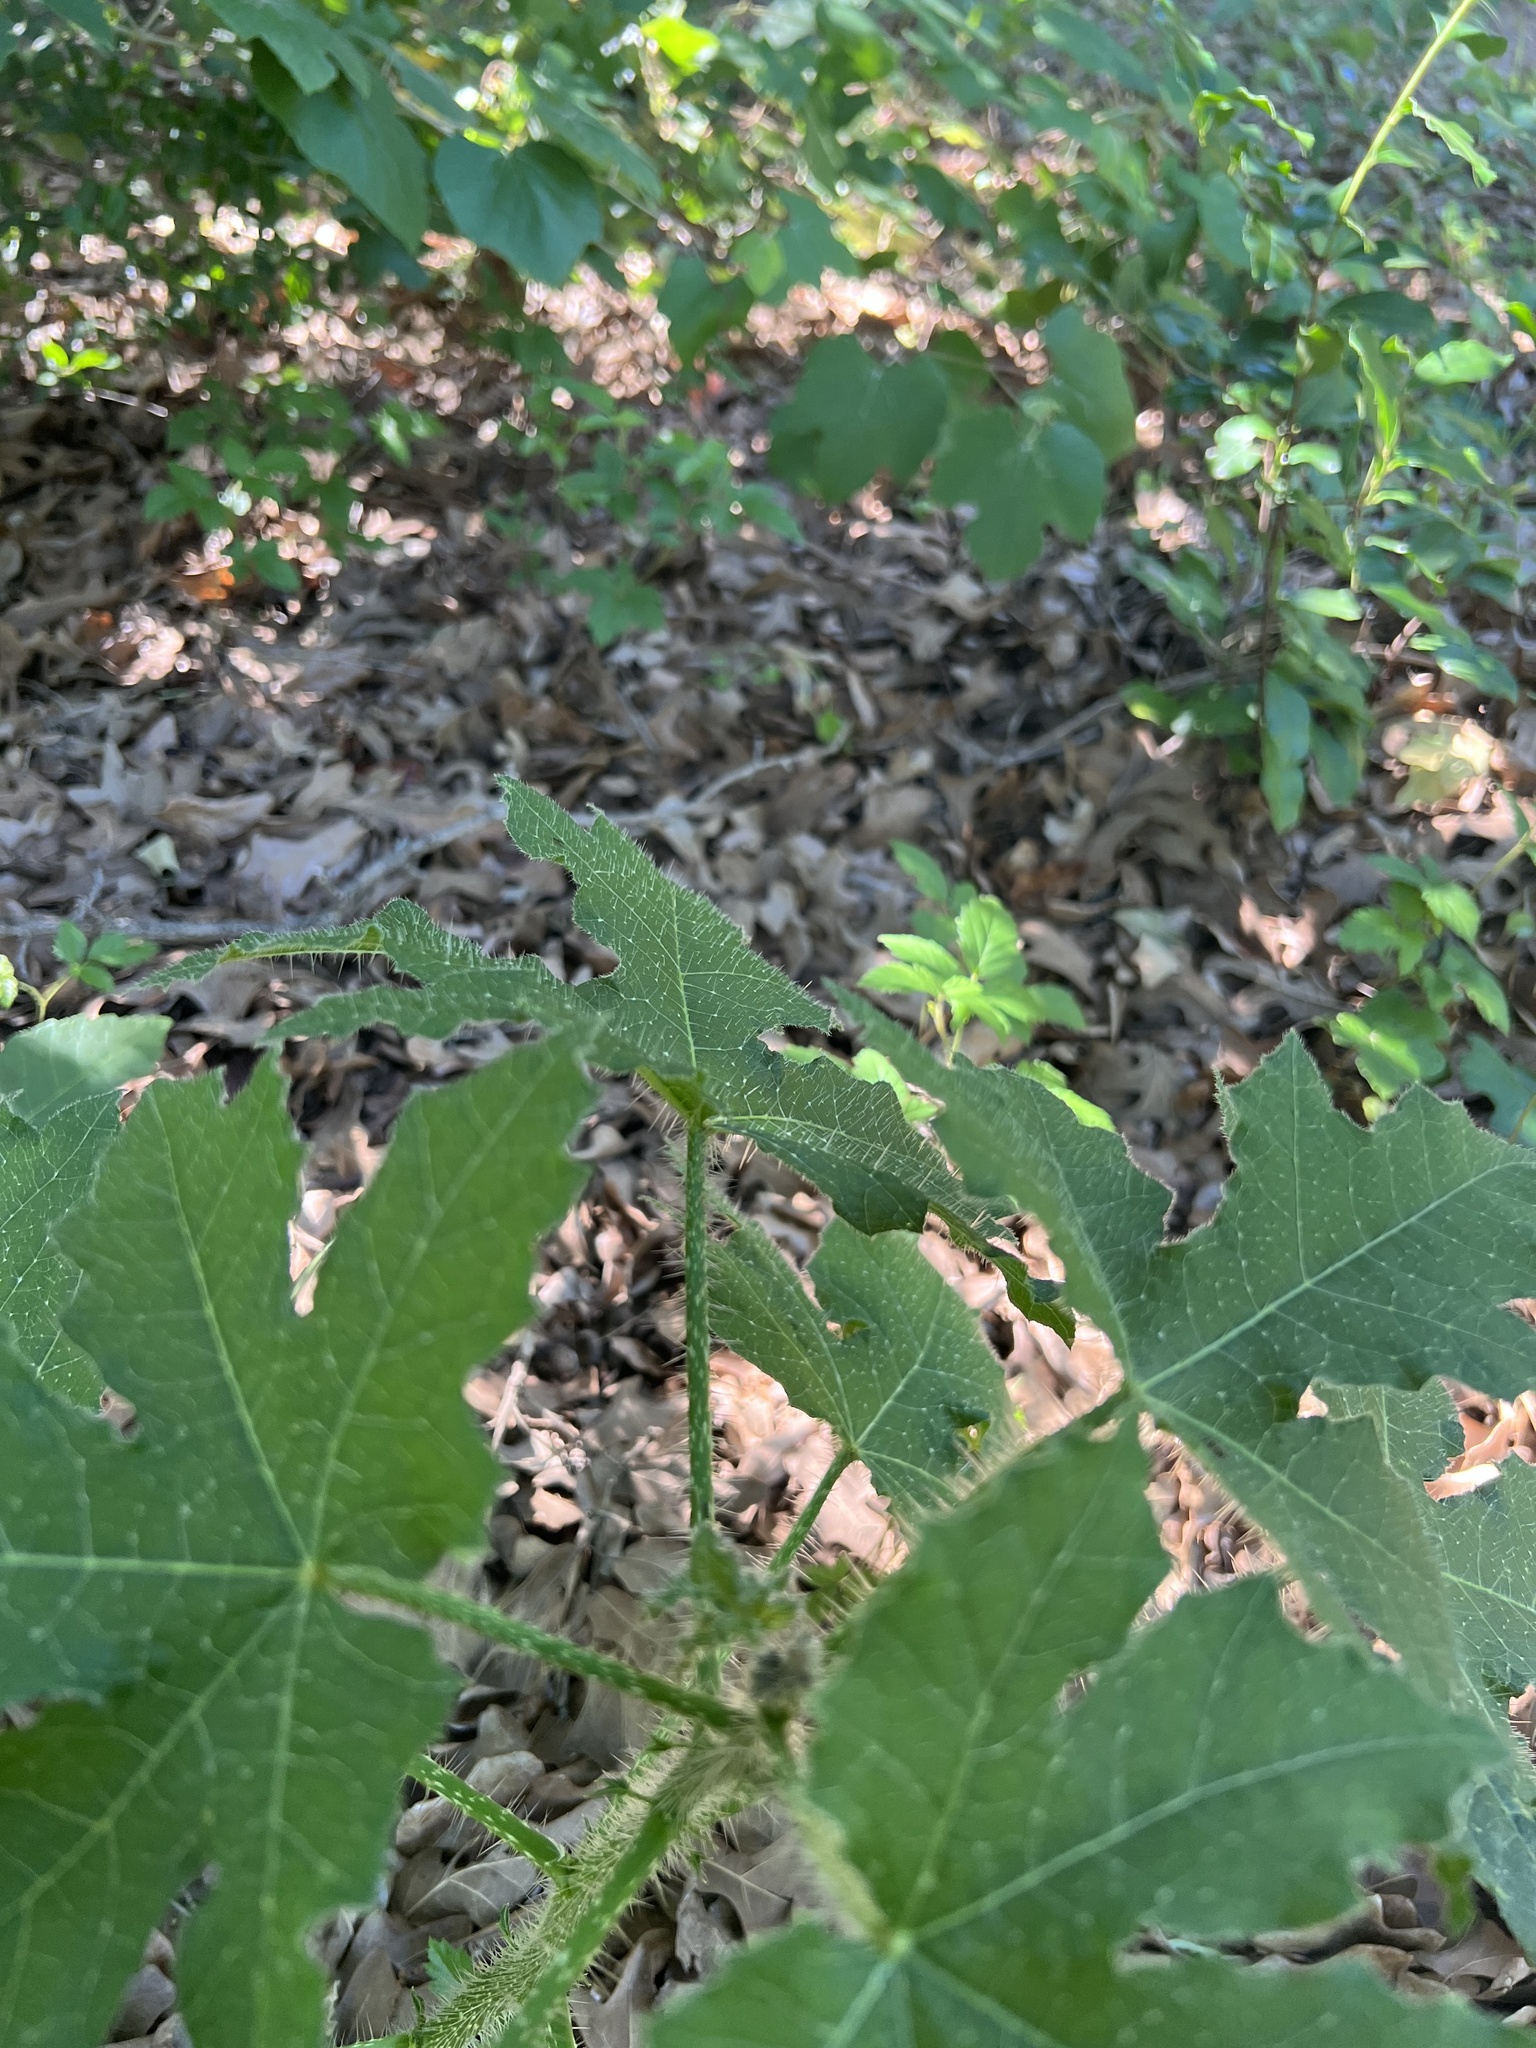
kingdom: Plantae
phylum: Tracheophyta
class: Magnoliopsida
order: Malpighiales
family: Euphorbiaceae
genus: Cnidoscolus
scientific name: Cnidoscolus texanus
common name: Texas bull-nettle
